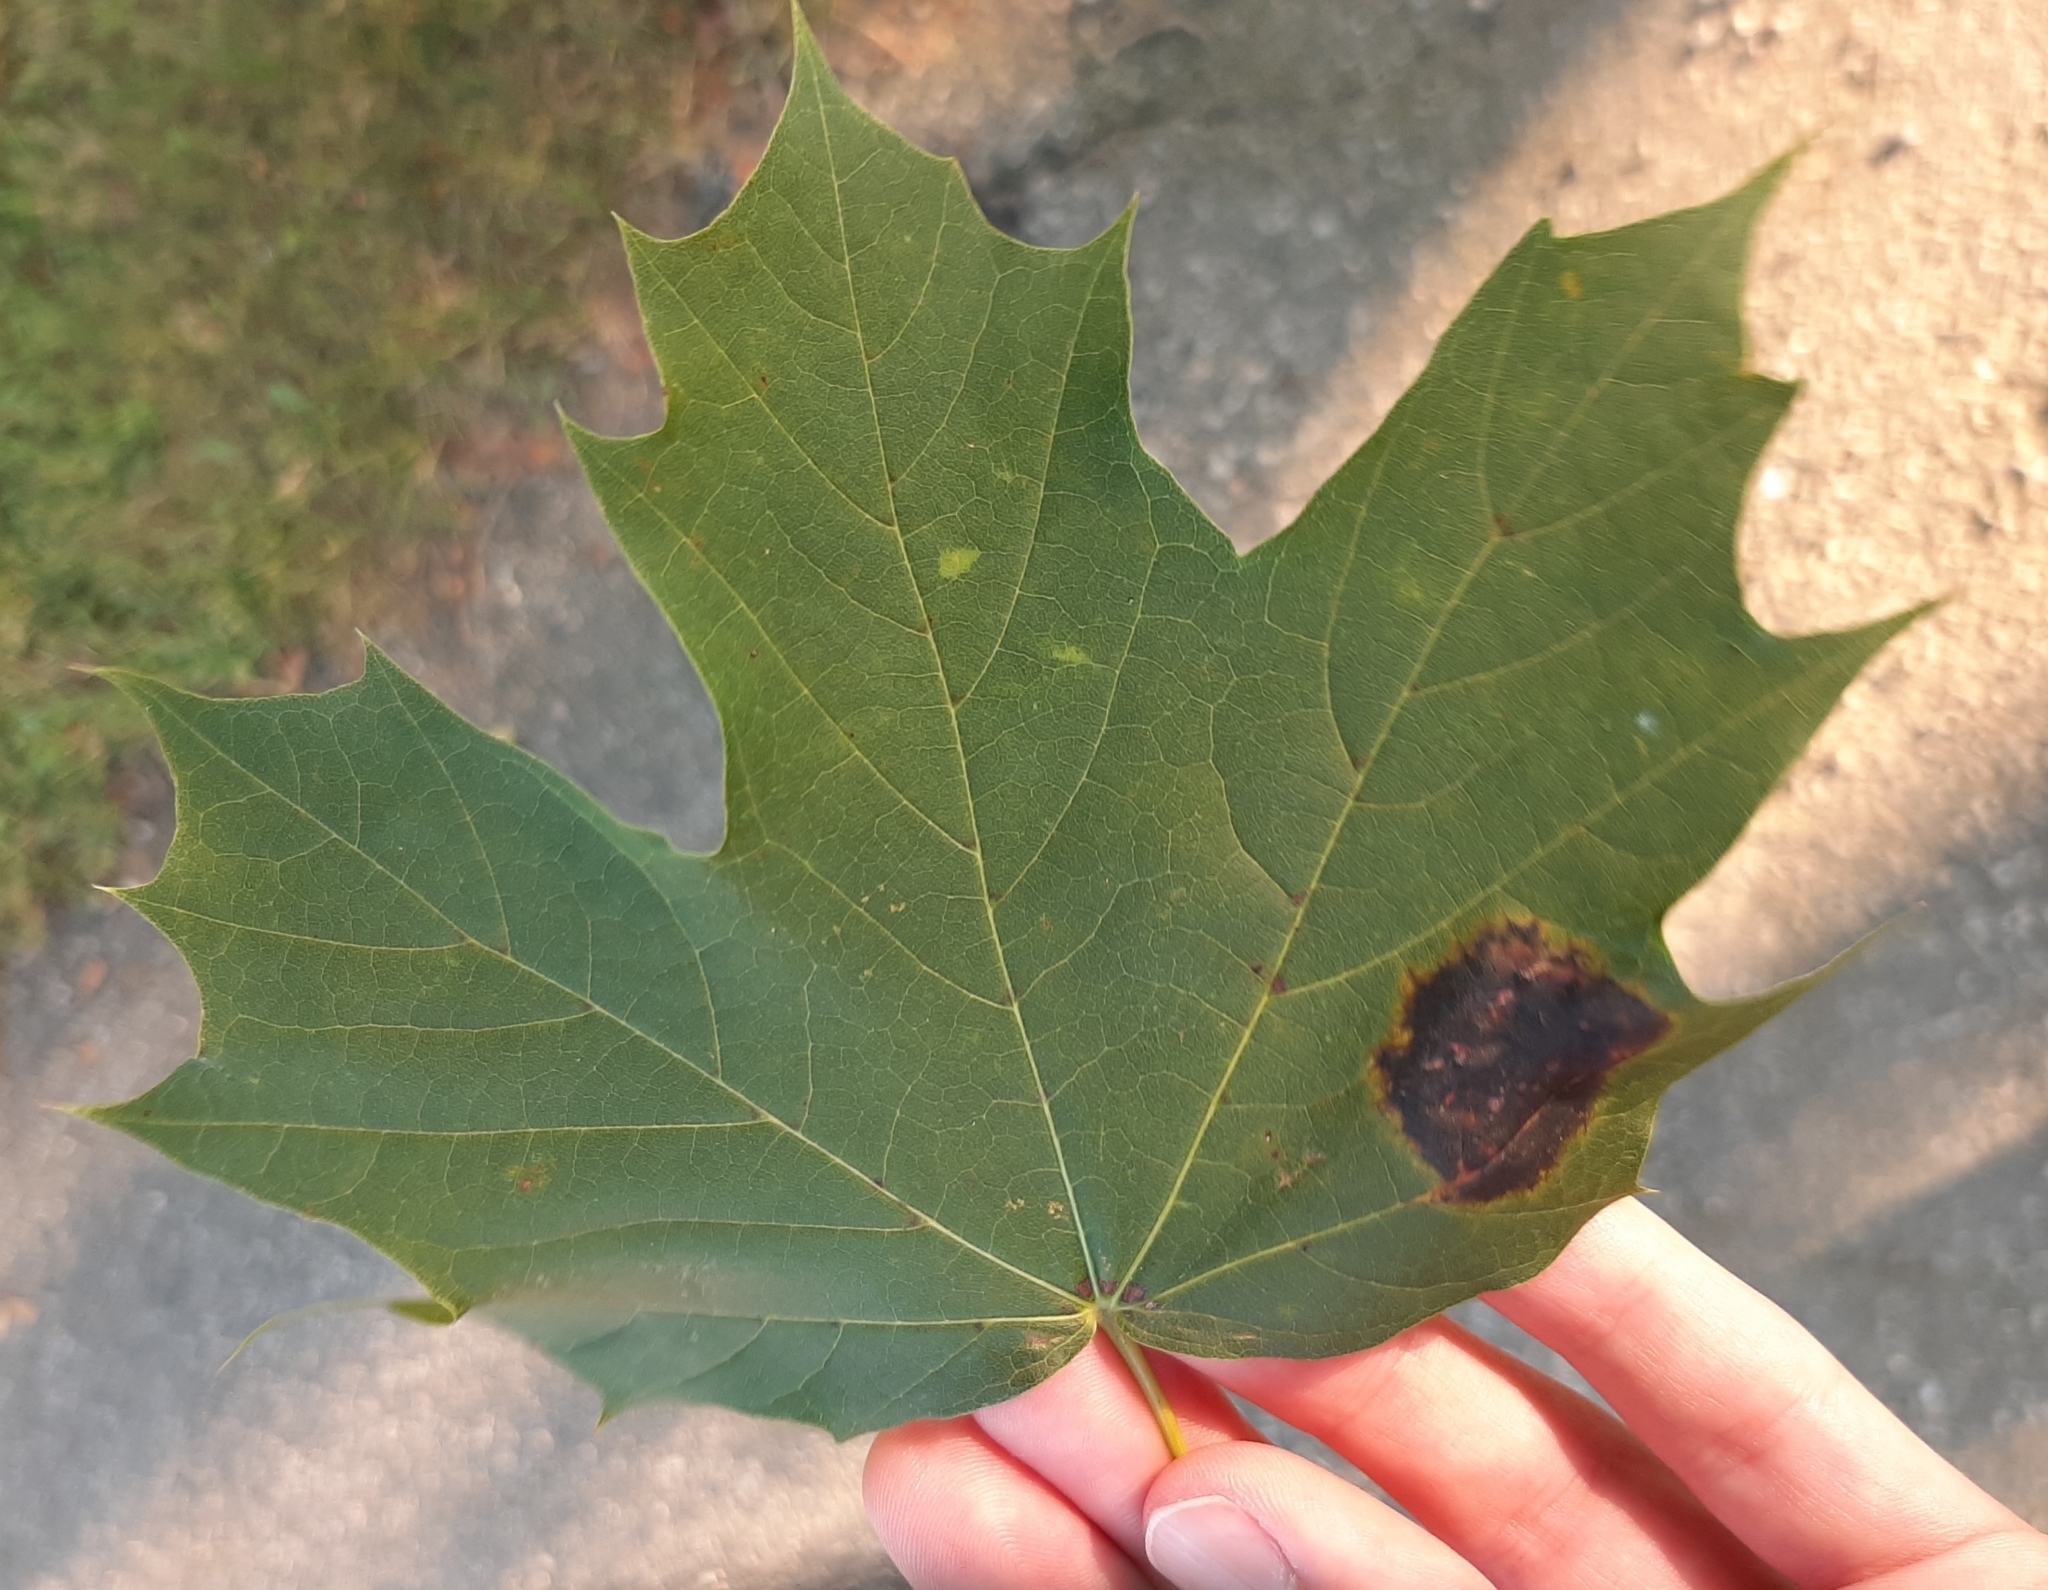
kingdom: Fungi
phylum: Ascomycota
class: Leotiomycetes
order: Rhytismatales
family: Rhytismataceae
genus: Rhytisma
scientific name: Rhytisma acerinum
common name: European tar spot
